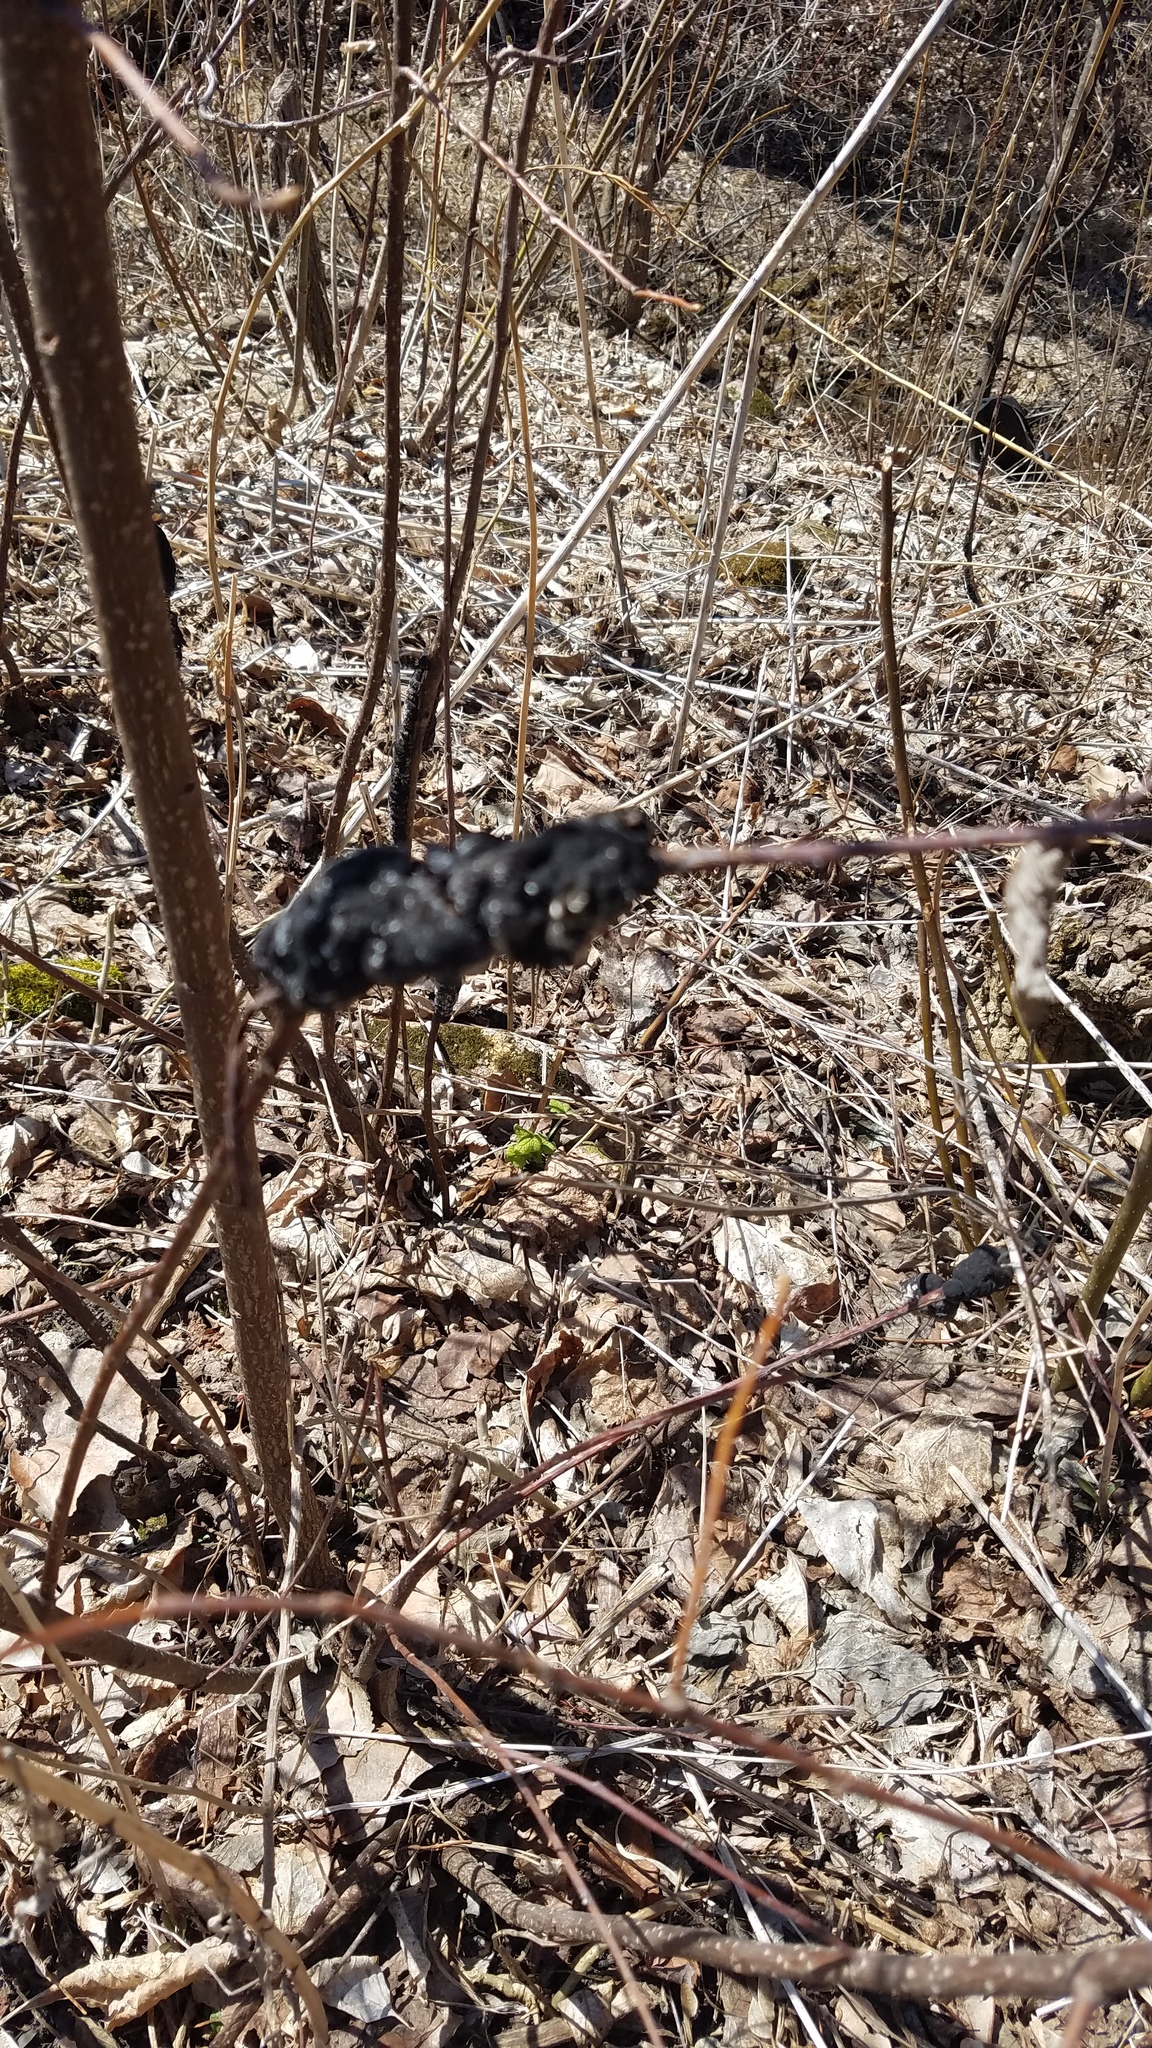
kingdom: Fungi
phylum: Ascomycota
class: Dothideomycetes
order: Venturiales
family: Venturiaceae
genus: Apiosporina
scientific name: Apiosporina morbosa
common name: Black knot
